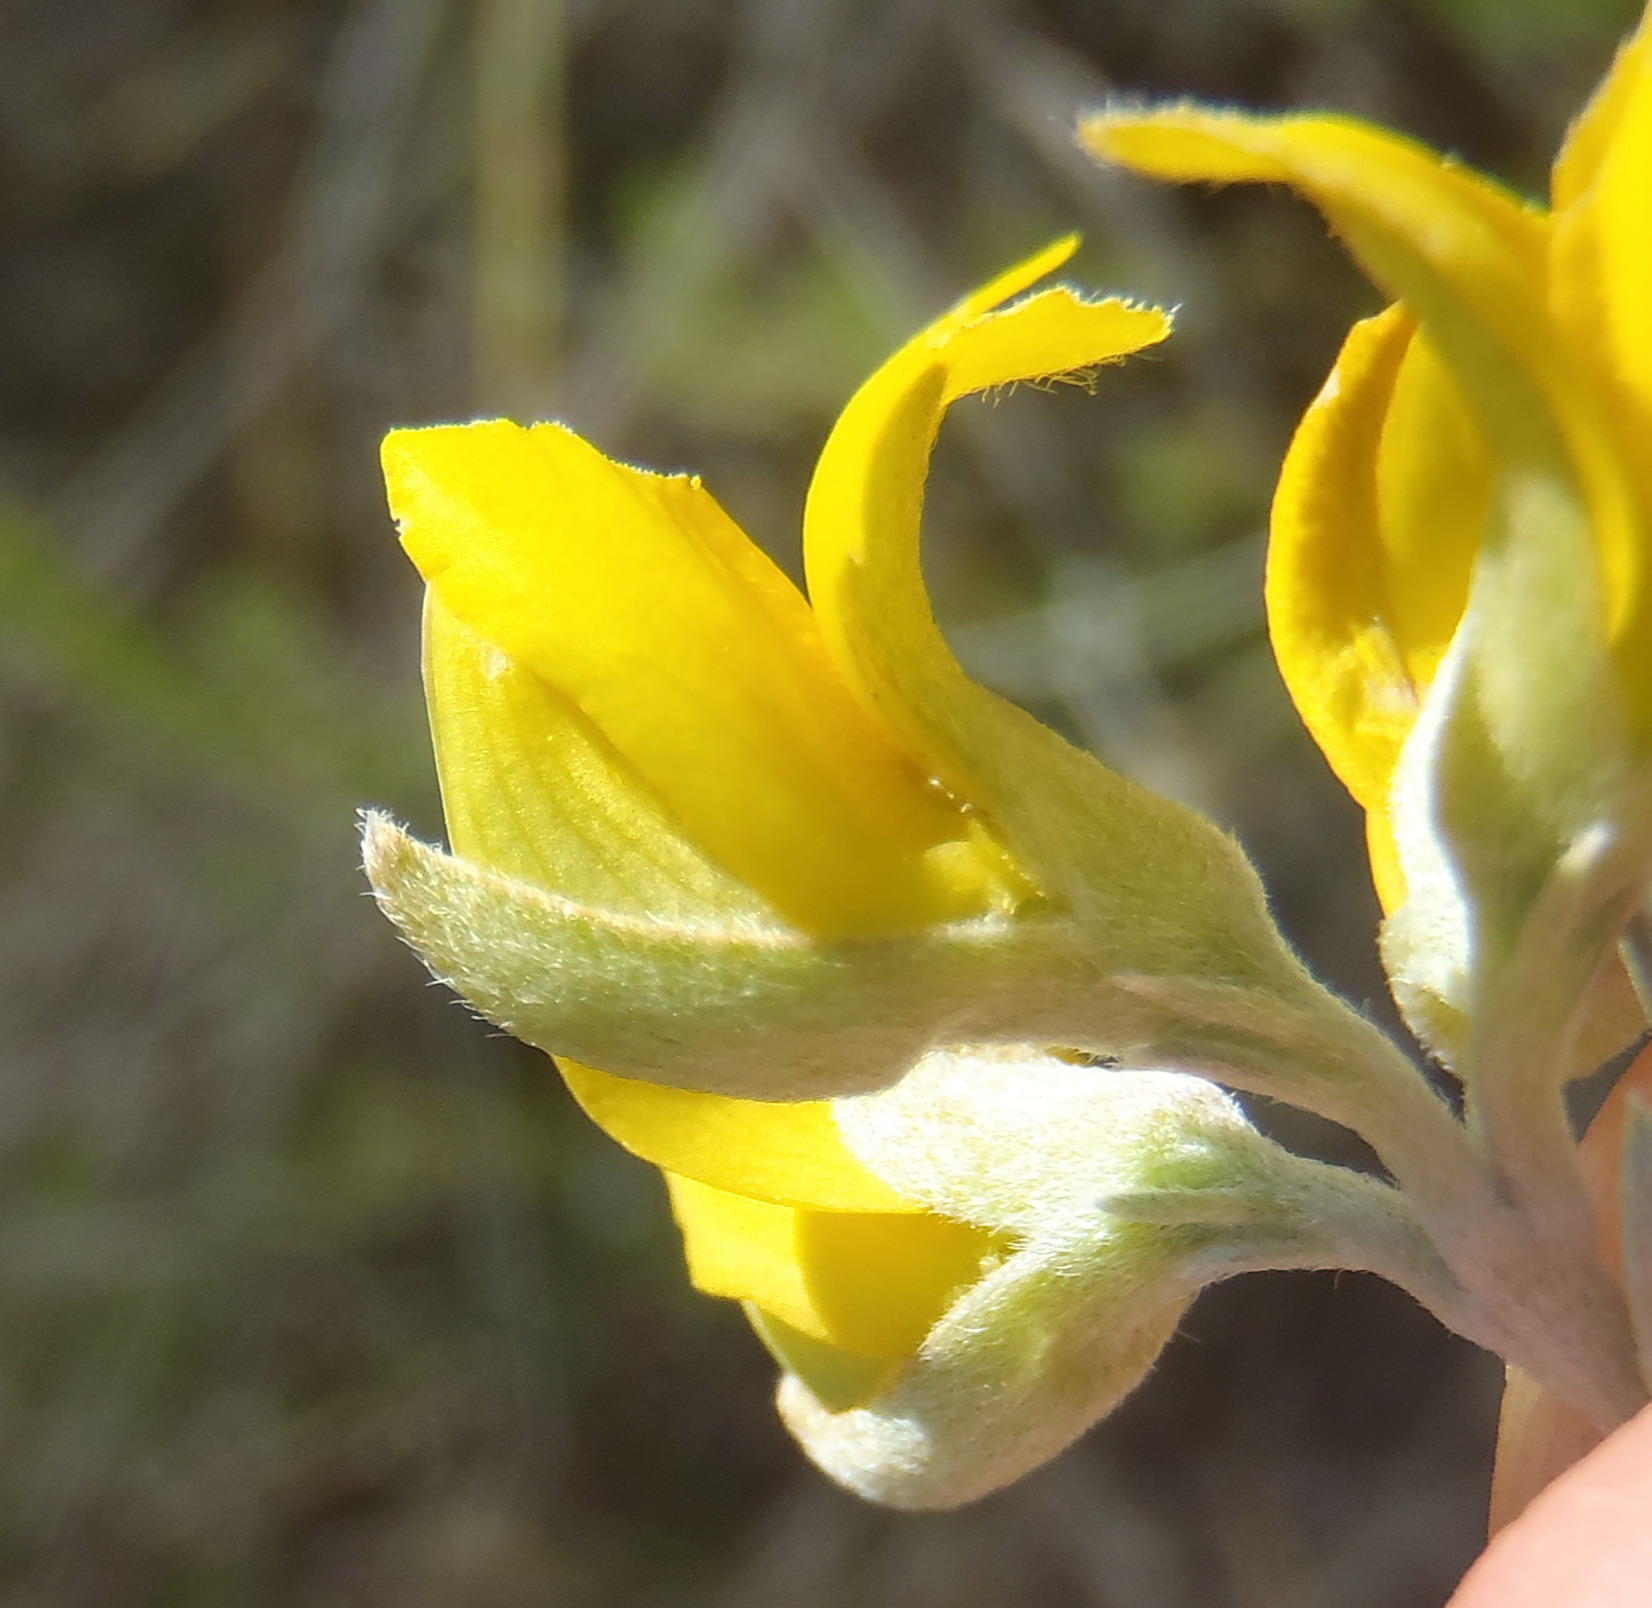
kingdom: Plantae
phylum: Tracheophyta
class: Magnoliopsida
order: Fabales
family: Fabaceae
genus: Argyrolobium
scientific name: Argyrolobium incanum
